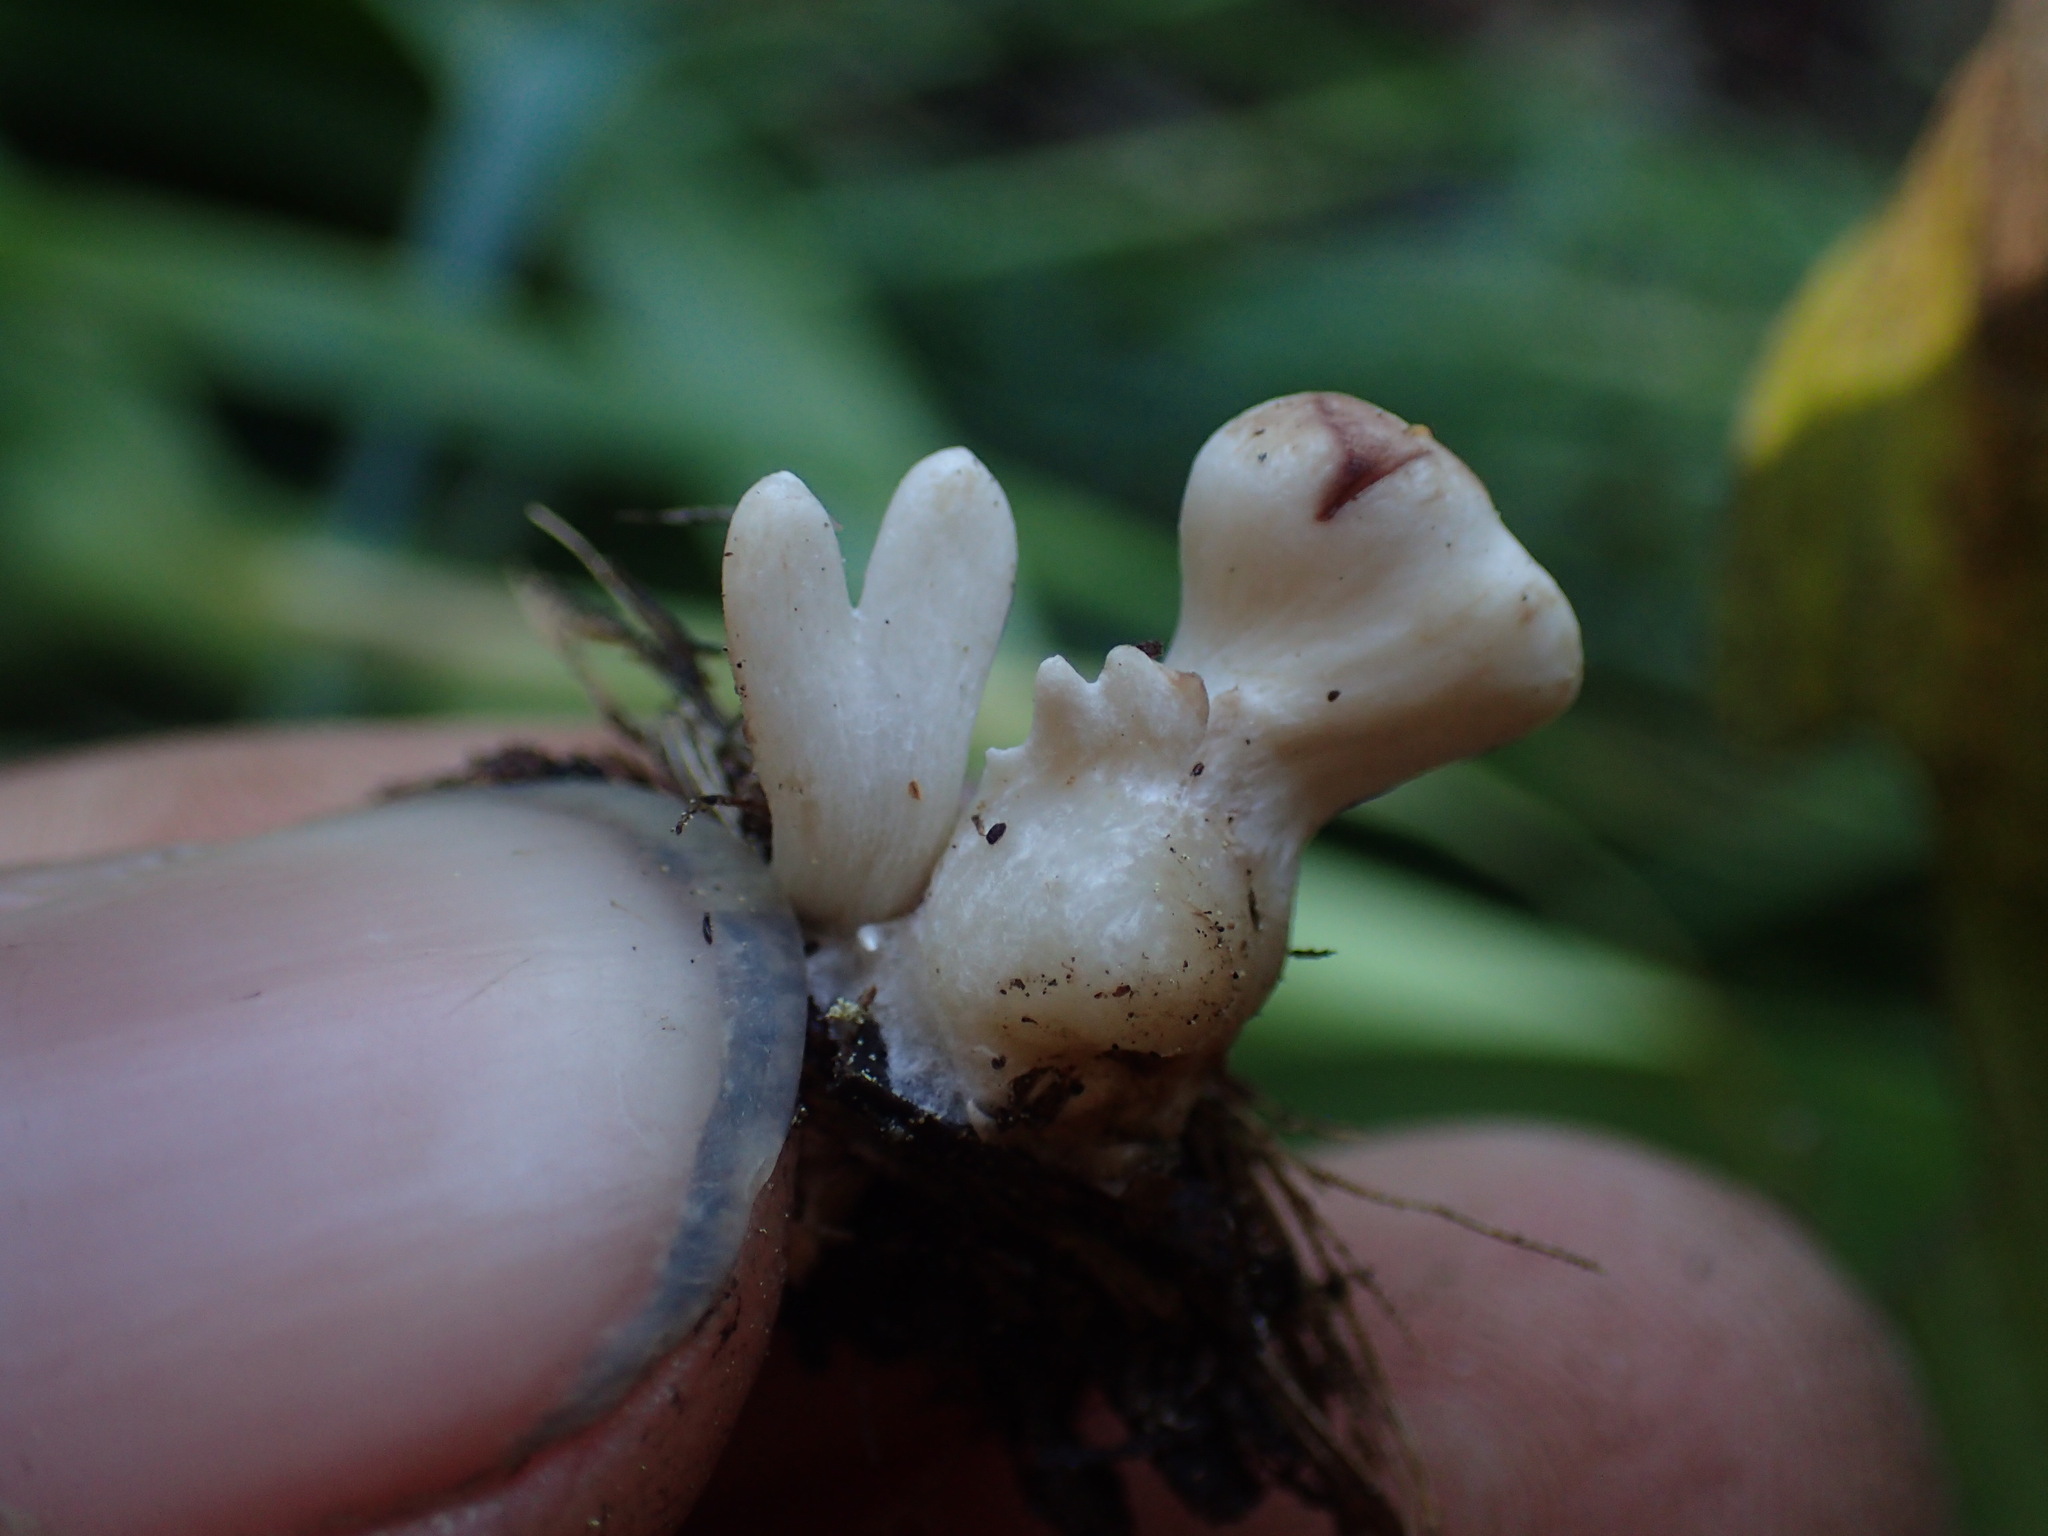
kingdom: Fungi
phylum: Basidiomycota
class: Agaricomycetes
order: Gomphales
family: Clavariadelphaceae
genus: Clavariadelphus
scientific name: Clavariadelphus mucronatus
